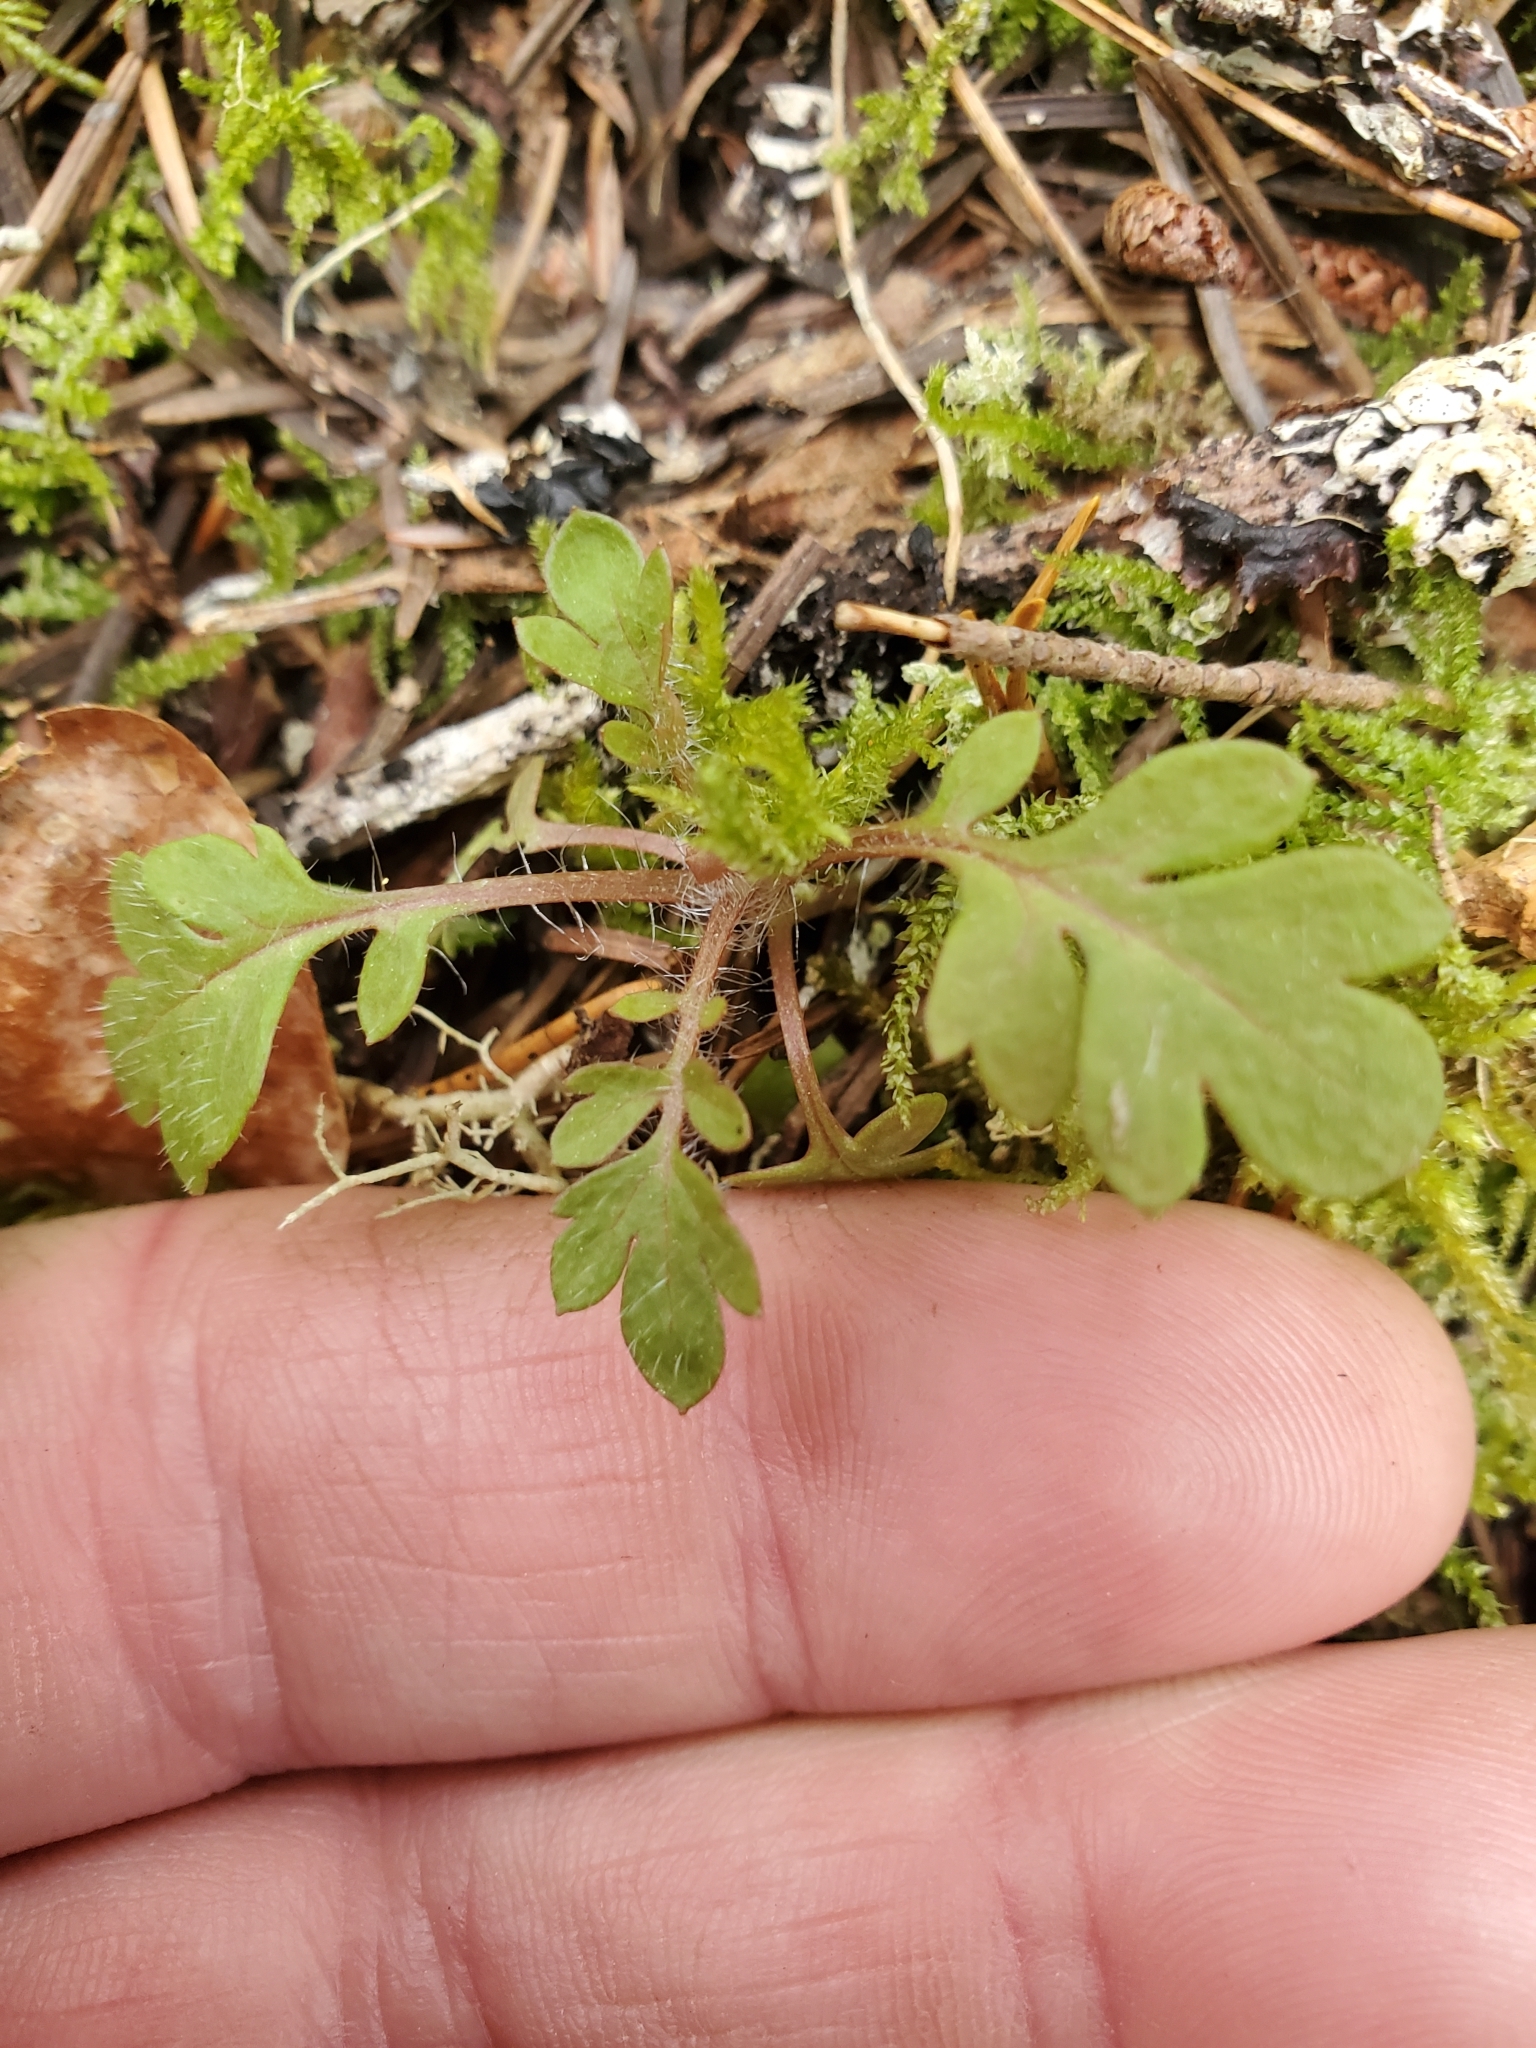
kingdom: Plantae
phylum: Tracheophyta
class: Magnoliopsida
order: Ericales
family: Polemoniaceae
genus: Collomia
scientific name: Collomia heterophylla
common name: Variable-leaved collomia
